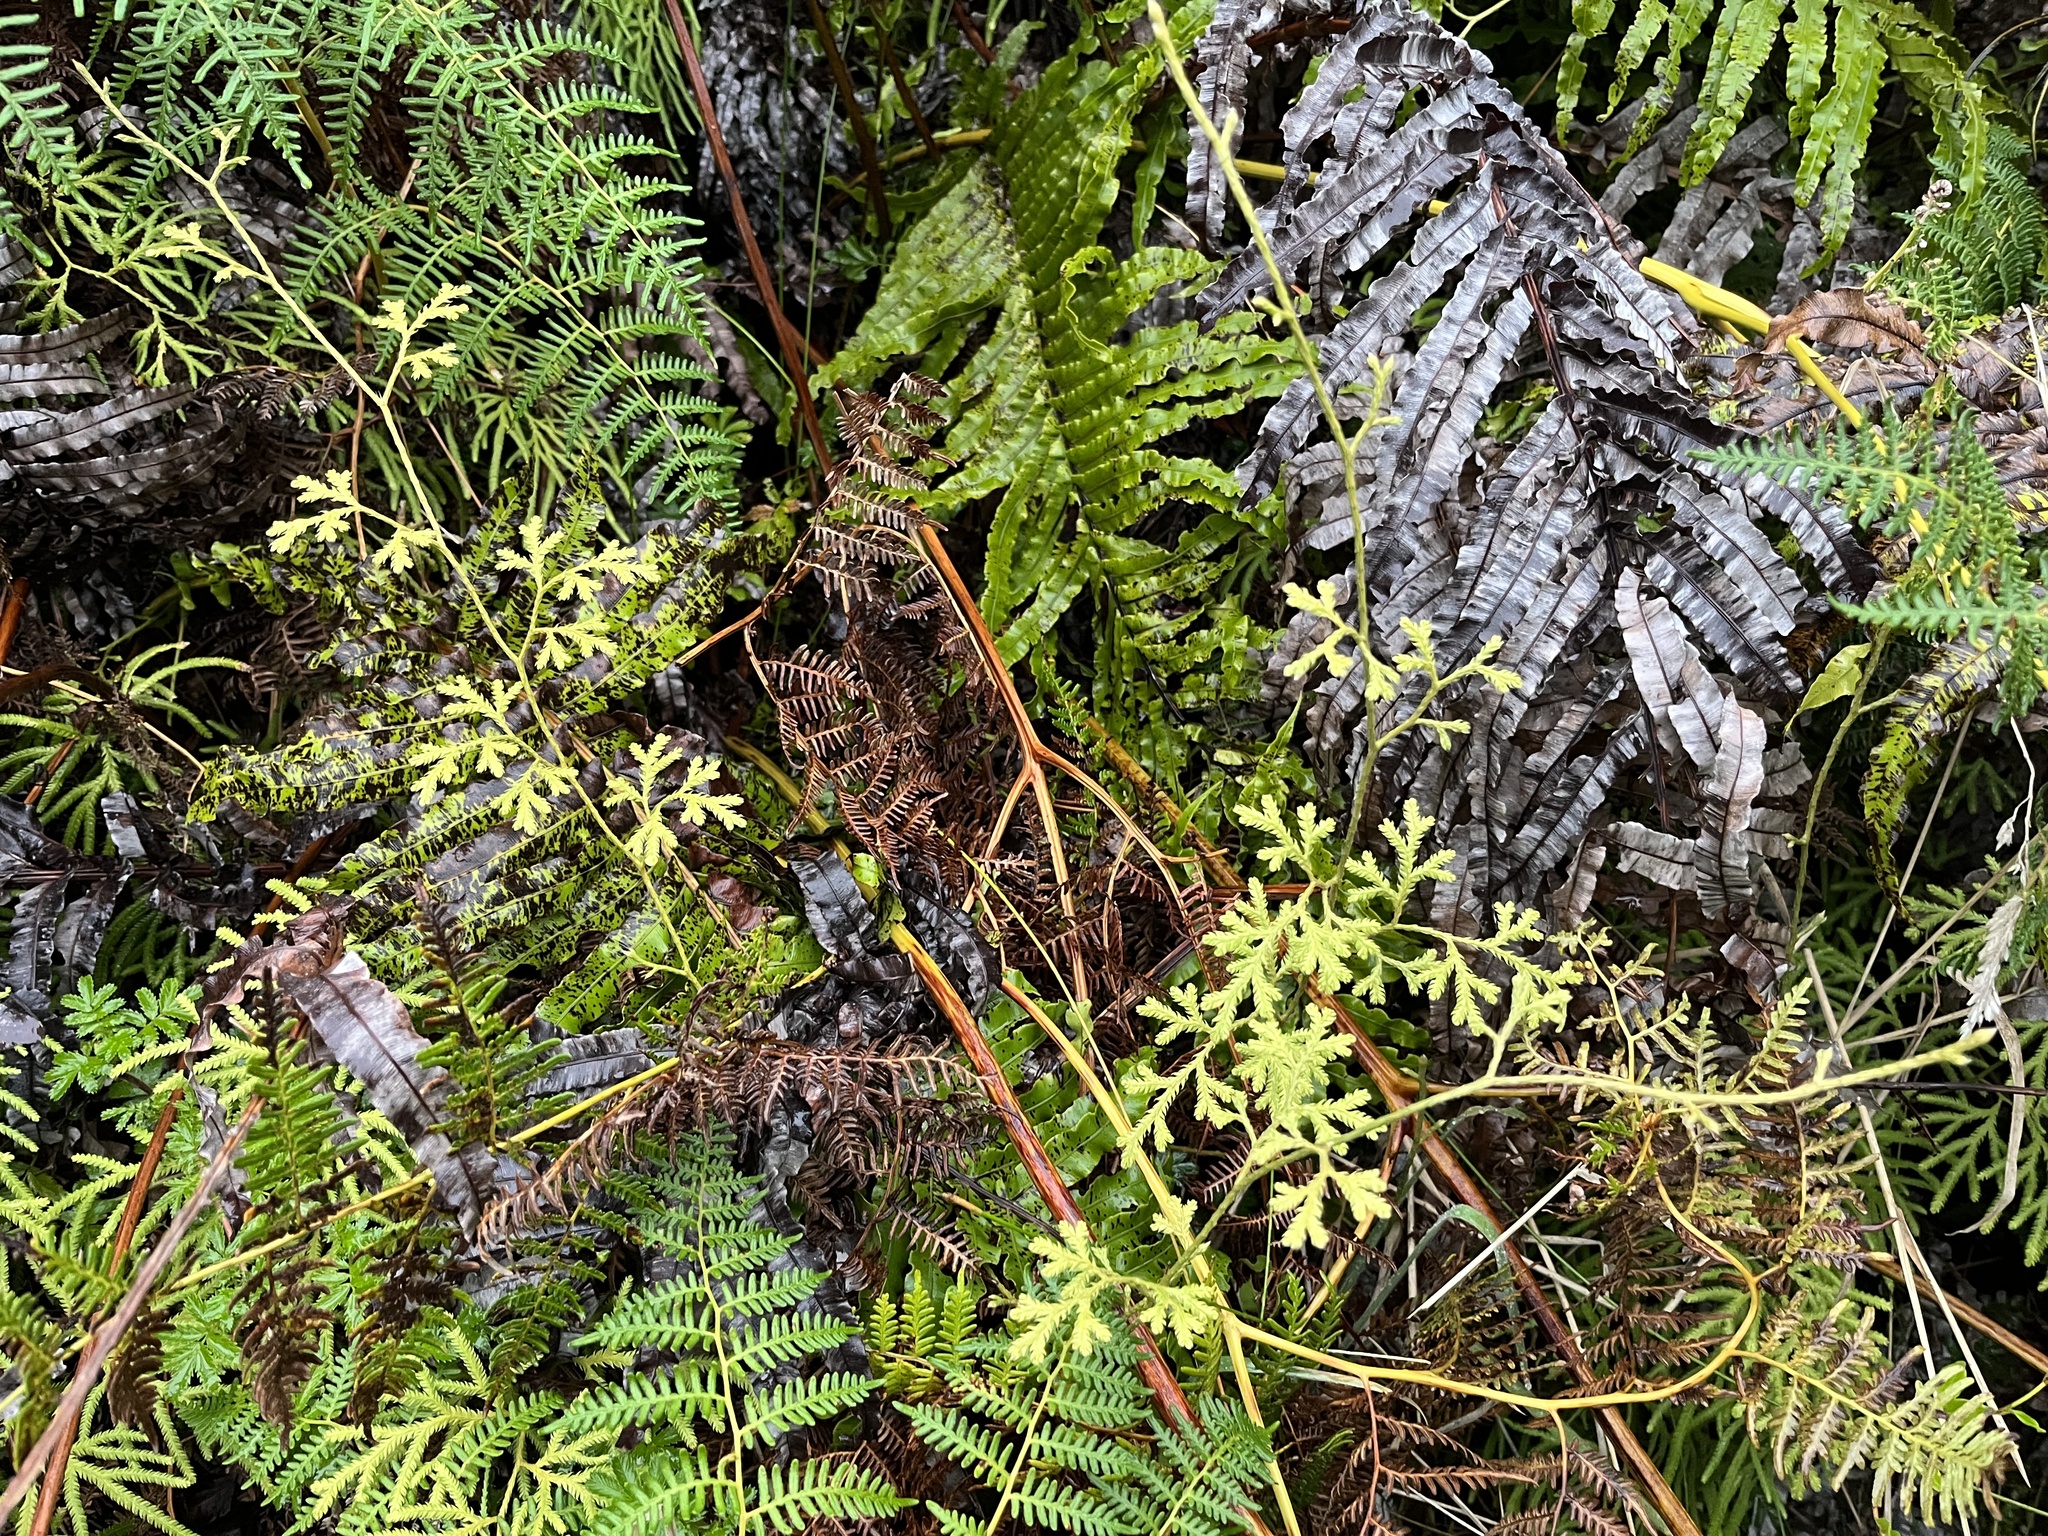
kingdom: Plantae
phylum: Tracheophyta
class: Lycopodiopsida
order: Lycopodiales
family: Lycopodiaceae
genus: Lycopodium
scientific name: Lycopodium volubile
